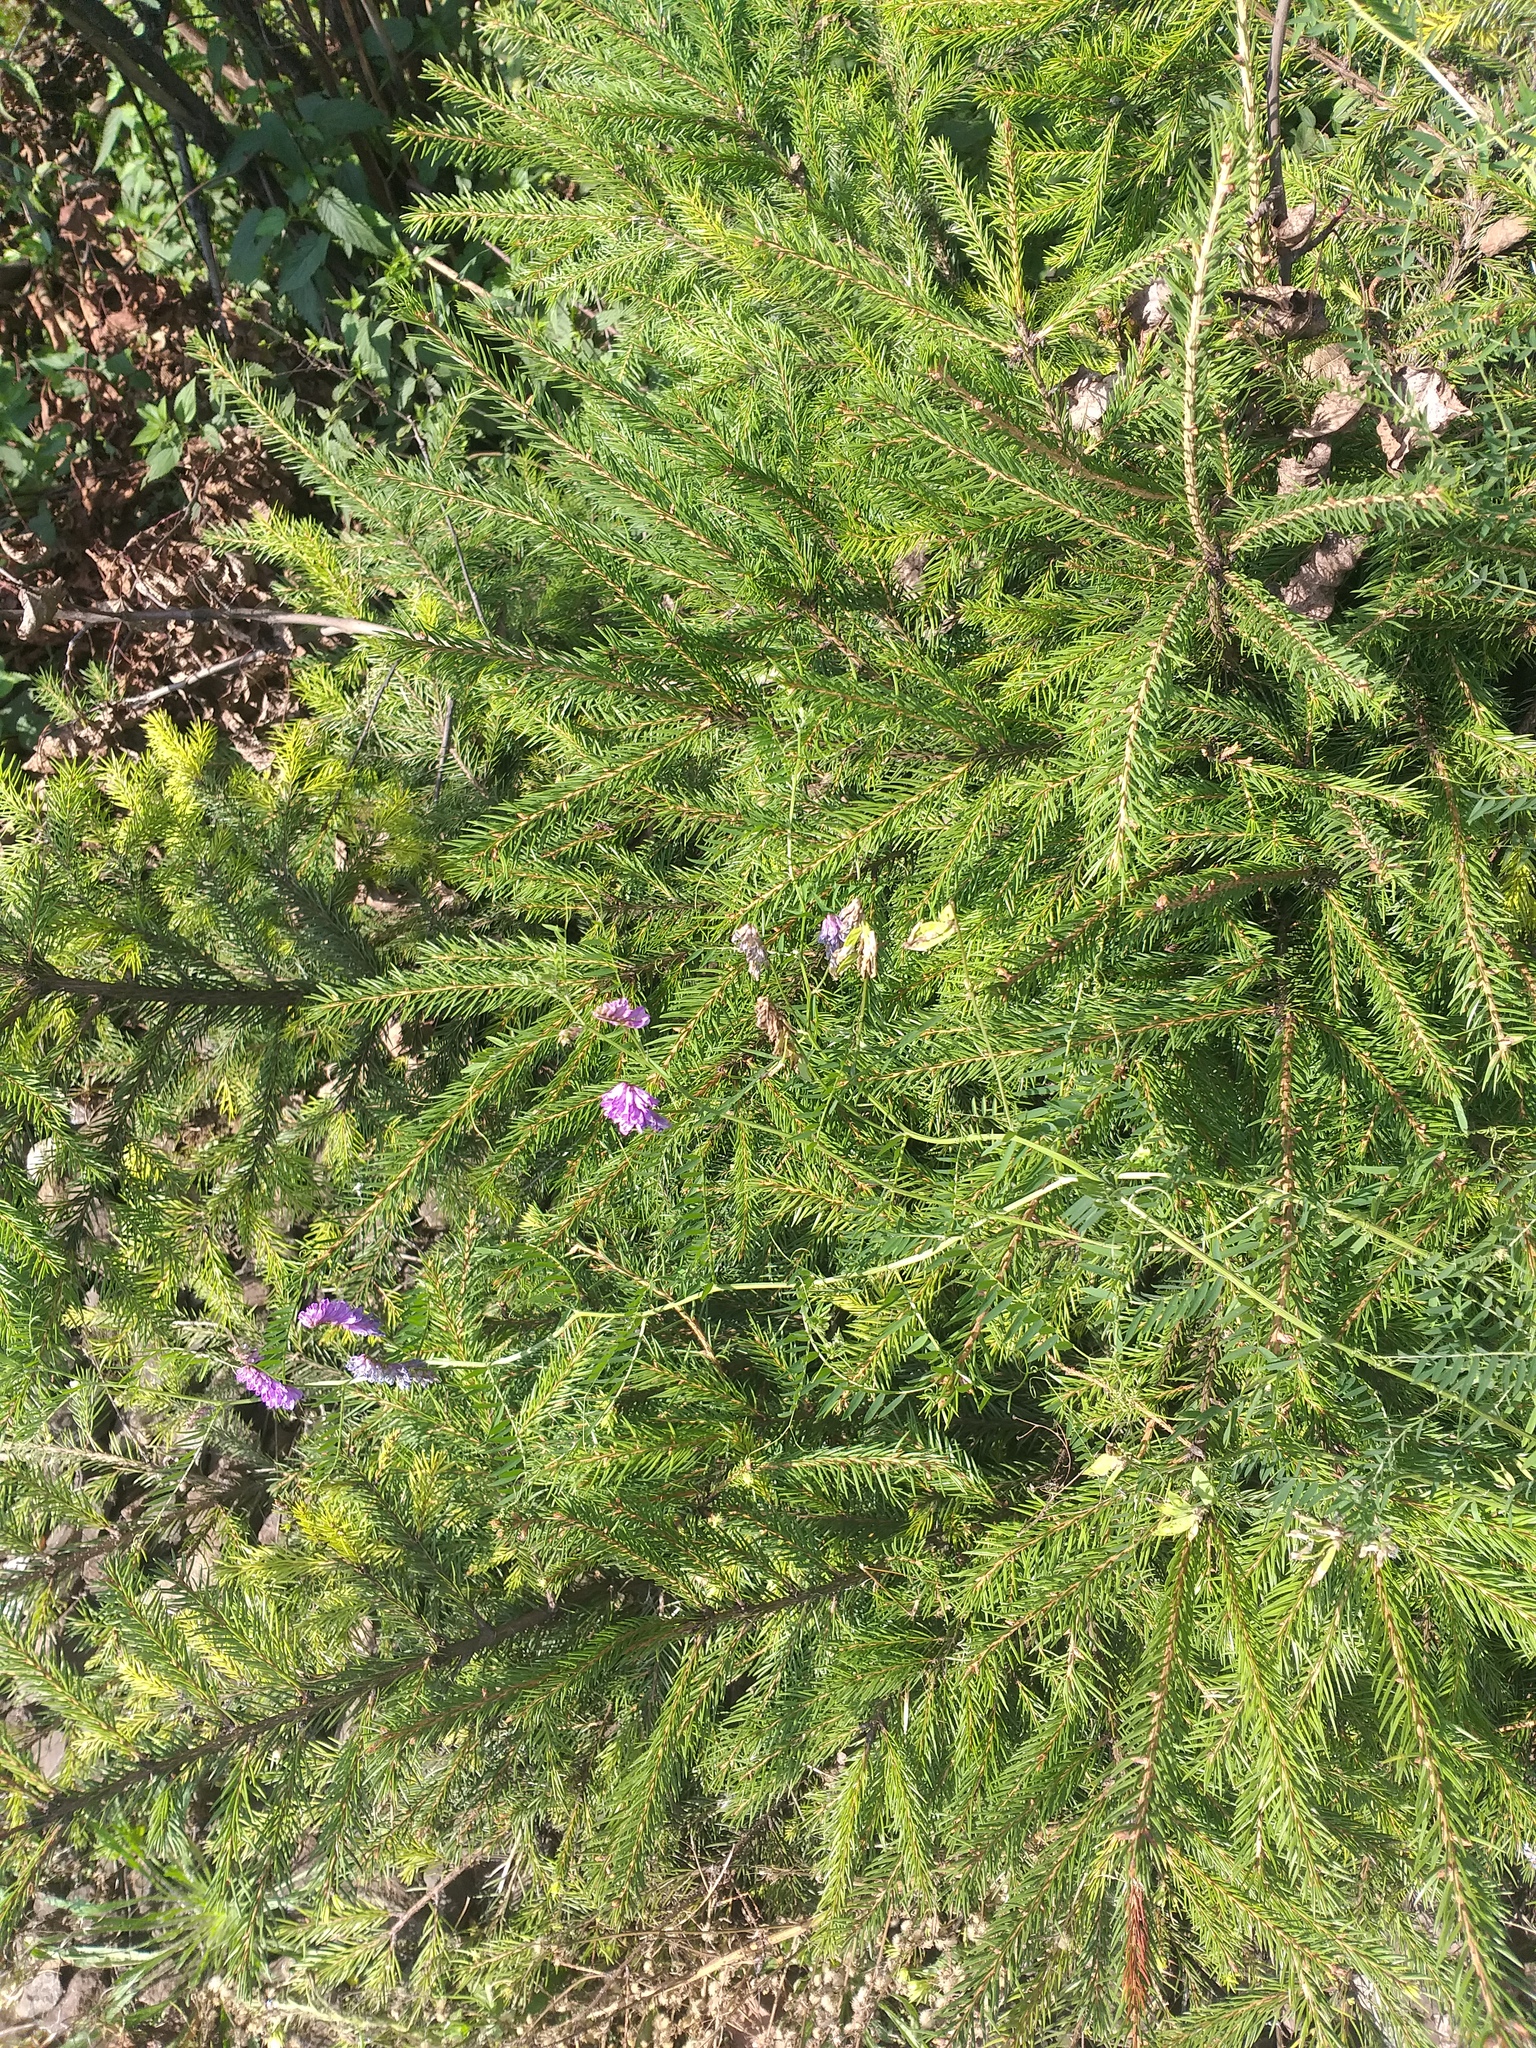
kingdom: Plantae
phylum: Tracheophyta
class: Magnoliopsida
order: Fabales
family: Fabaceae
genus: Vicia
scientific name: Vicia cracca
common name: Bird vetch
